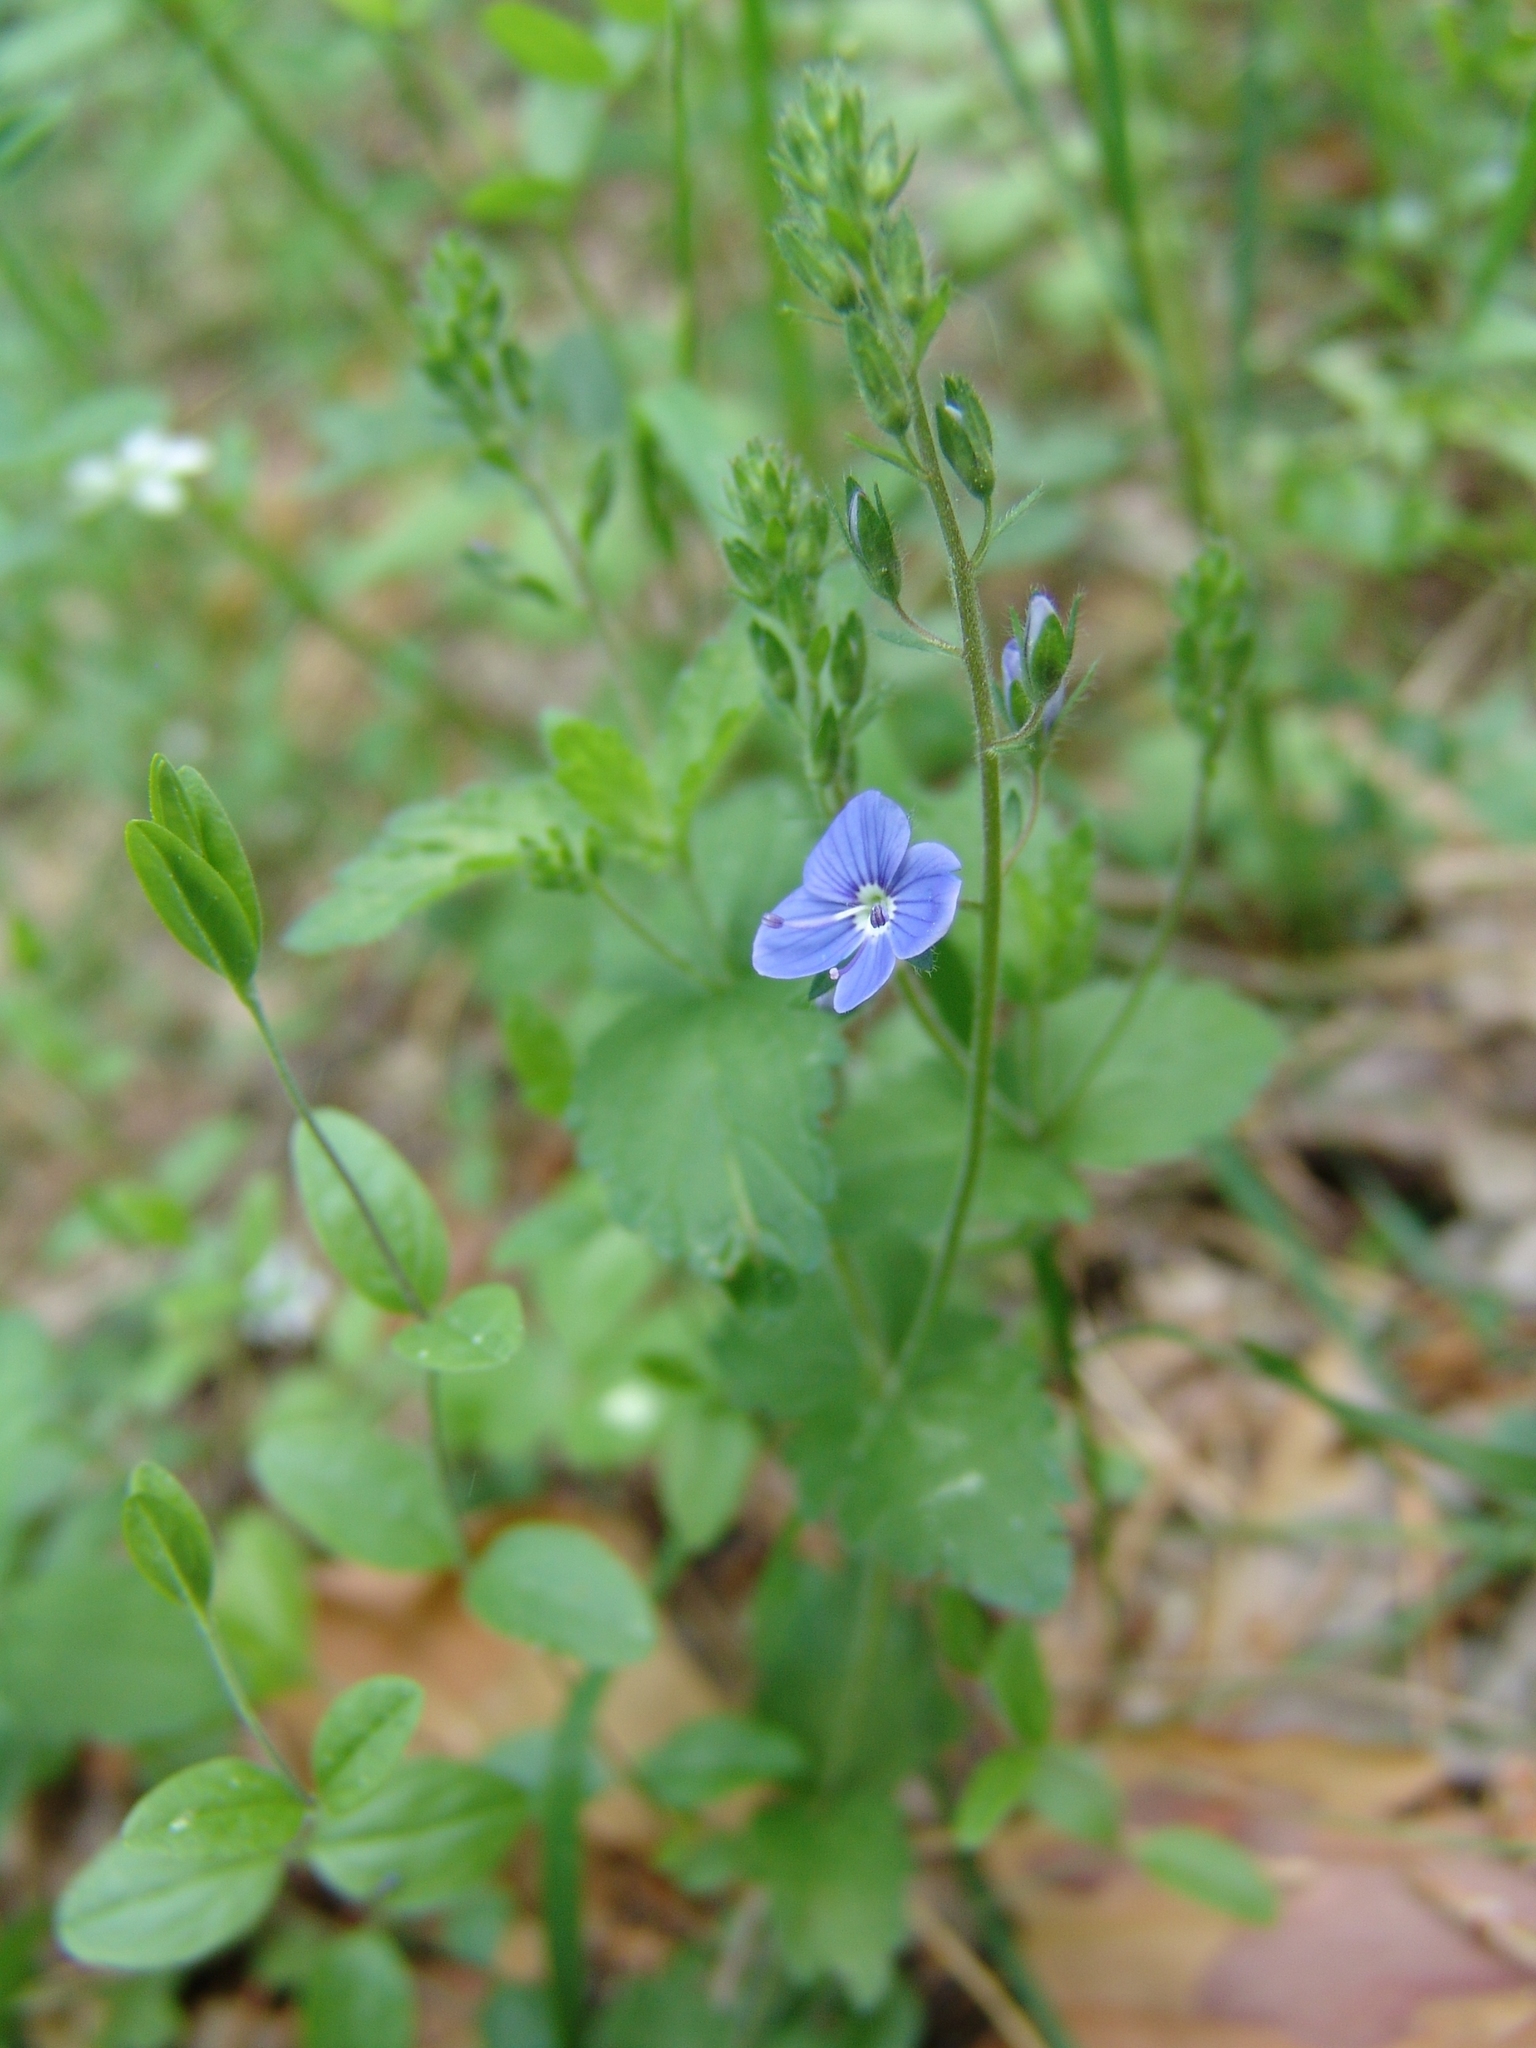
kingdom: Plantae
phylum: Tracheophyta
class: Magnoliopsida
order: Lamiales
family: Plantaginaceae
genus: Veronica
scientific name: Veronica chamaedrys
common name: Germander speedwell
